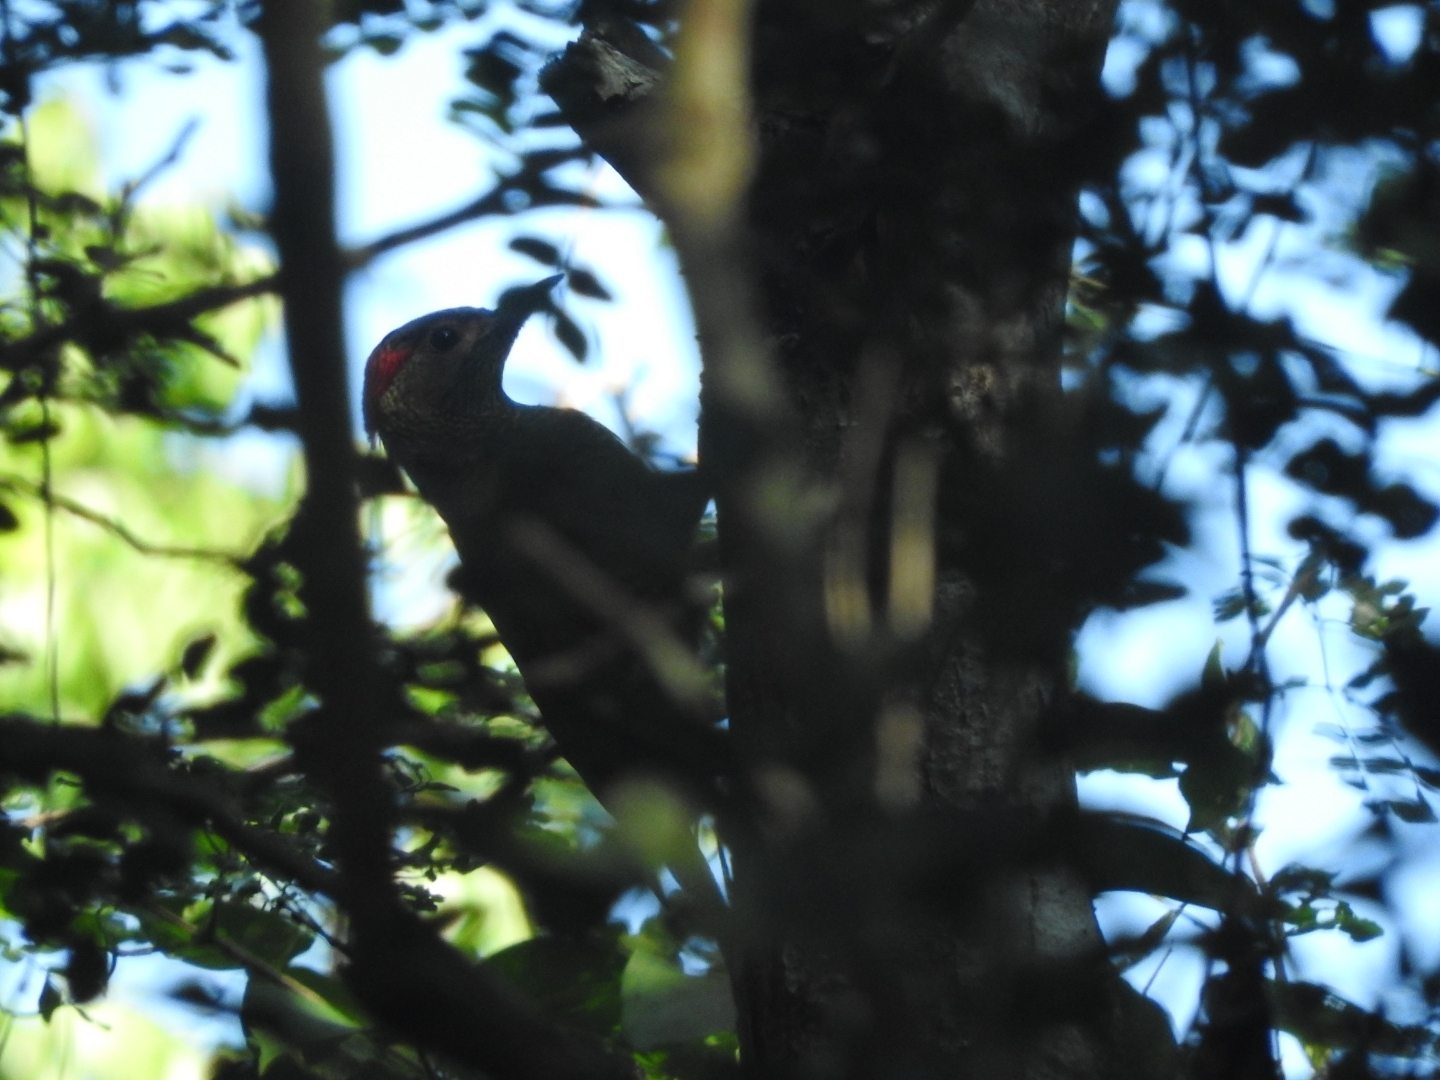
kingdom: Animalia
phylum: Chordata
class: Aves
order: Piciformes
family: Picidae
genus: Colaptes
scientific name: Colaptes rubiginosus
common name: Golden-olive woodpecker
